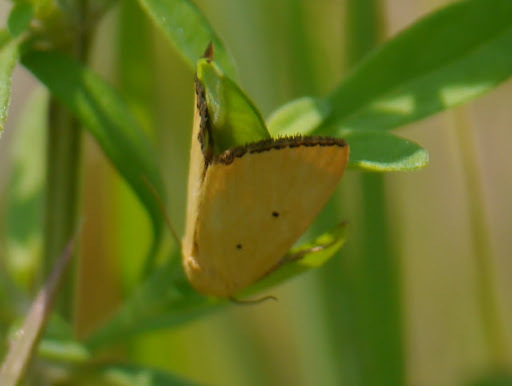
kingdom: Animalia
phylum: Arthropoda
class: Insecta
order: Lepidoptera
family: Noctuidae
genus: Marimatha
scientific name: Marimatha nigrofimbria
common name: Black-bordered lemon moth
